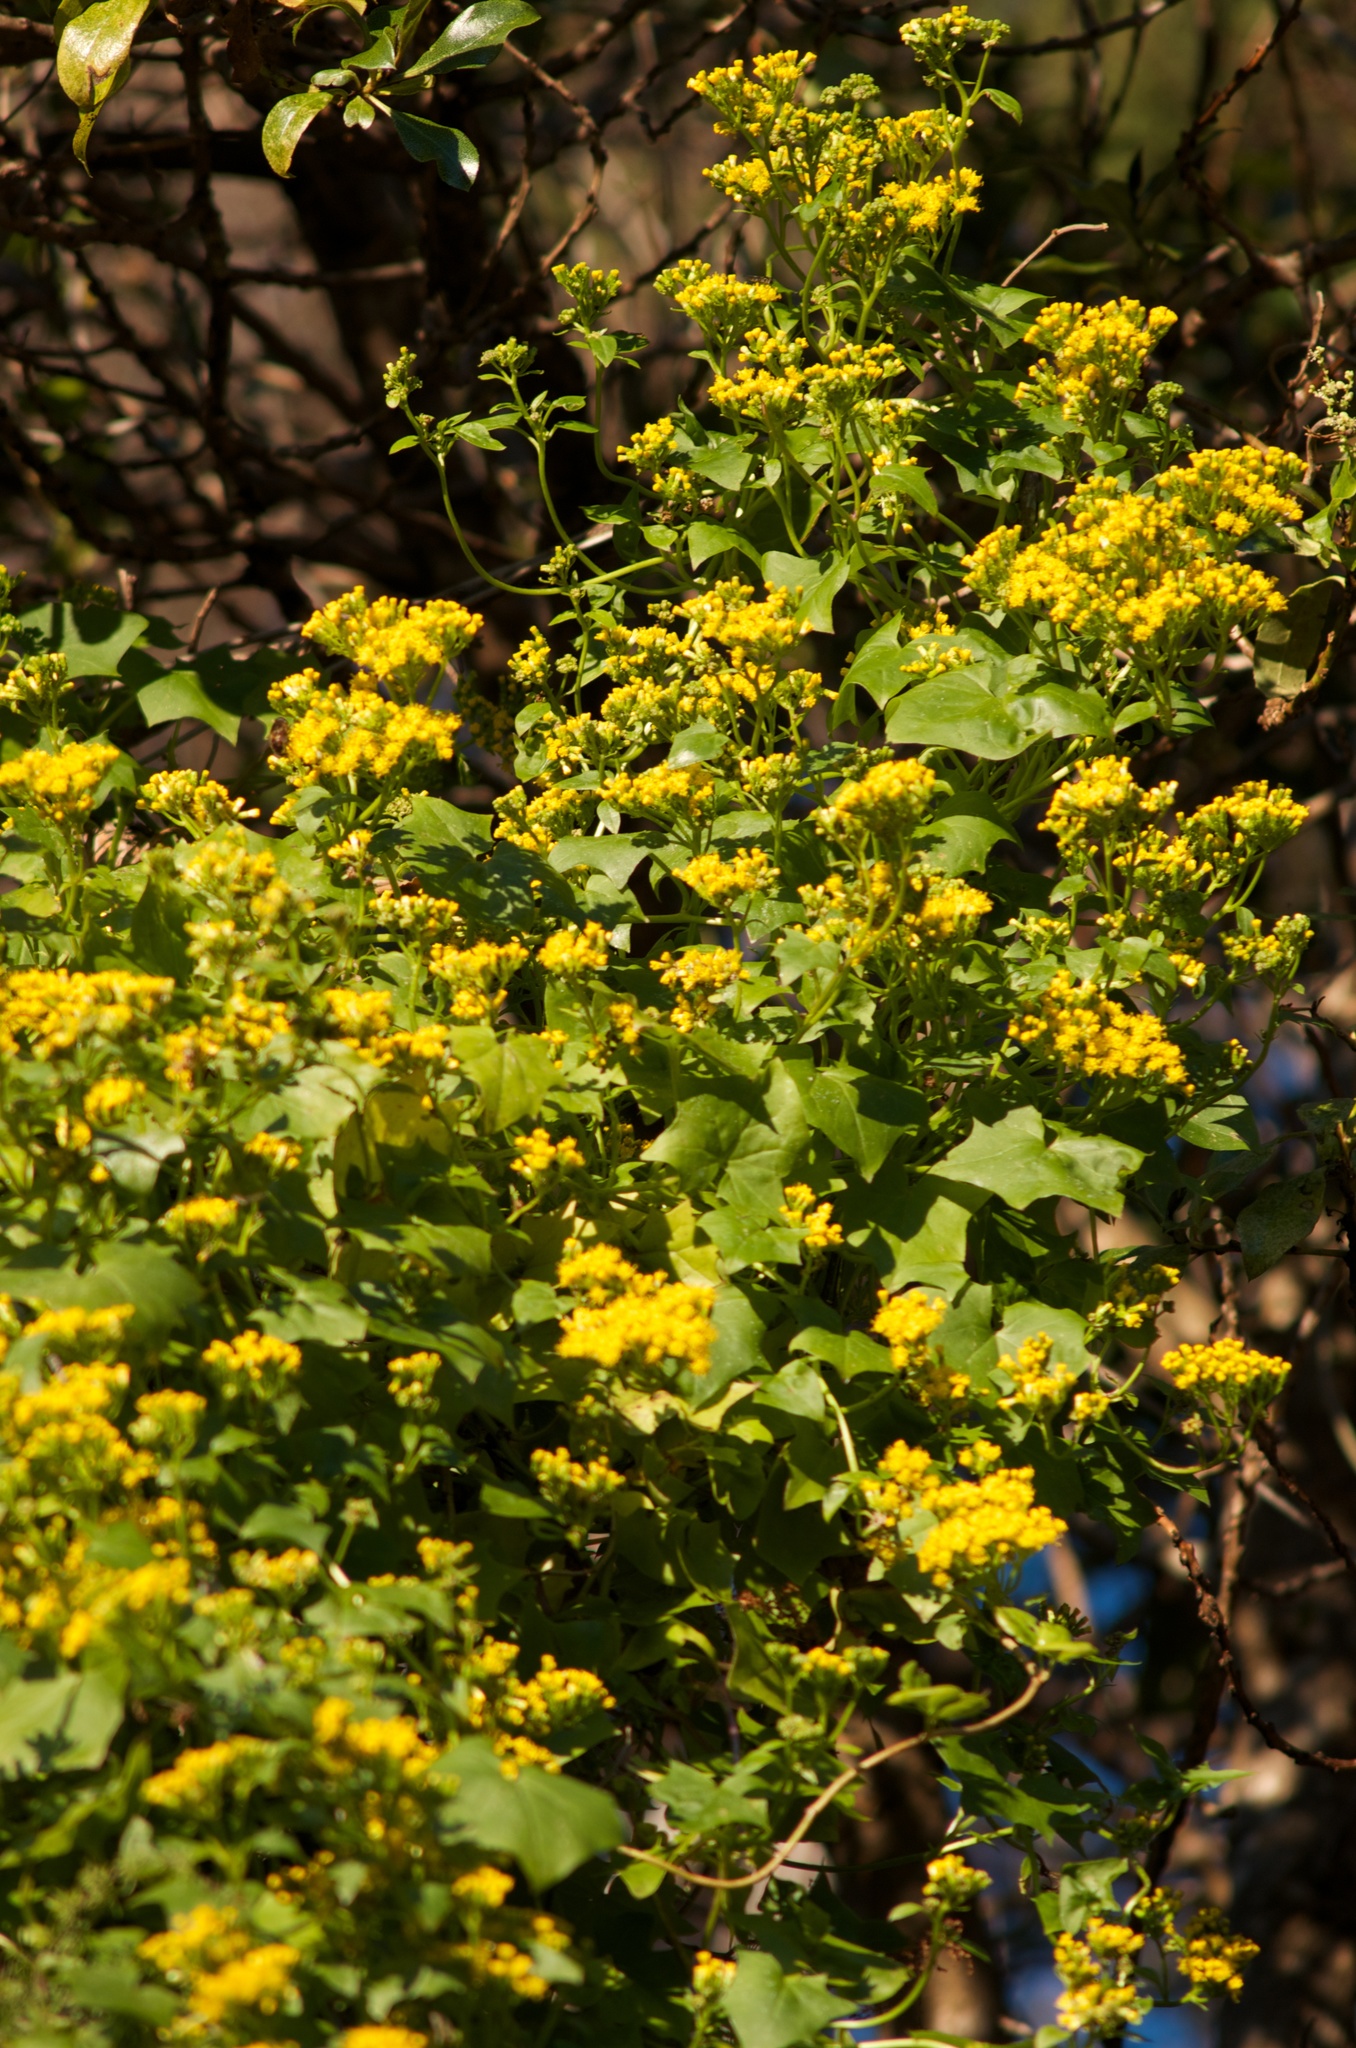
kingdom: Plantae
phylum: Tracheophyta
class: Magnoliopsida
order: Asterales
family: Asteraceae
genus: Delairea
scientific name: Delairea odorata
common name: Cape-ivy
